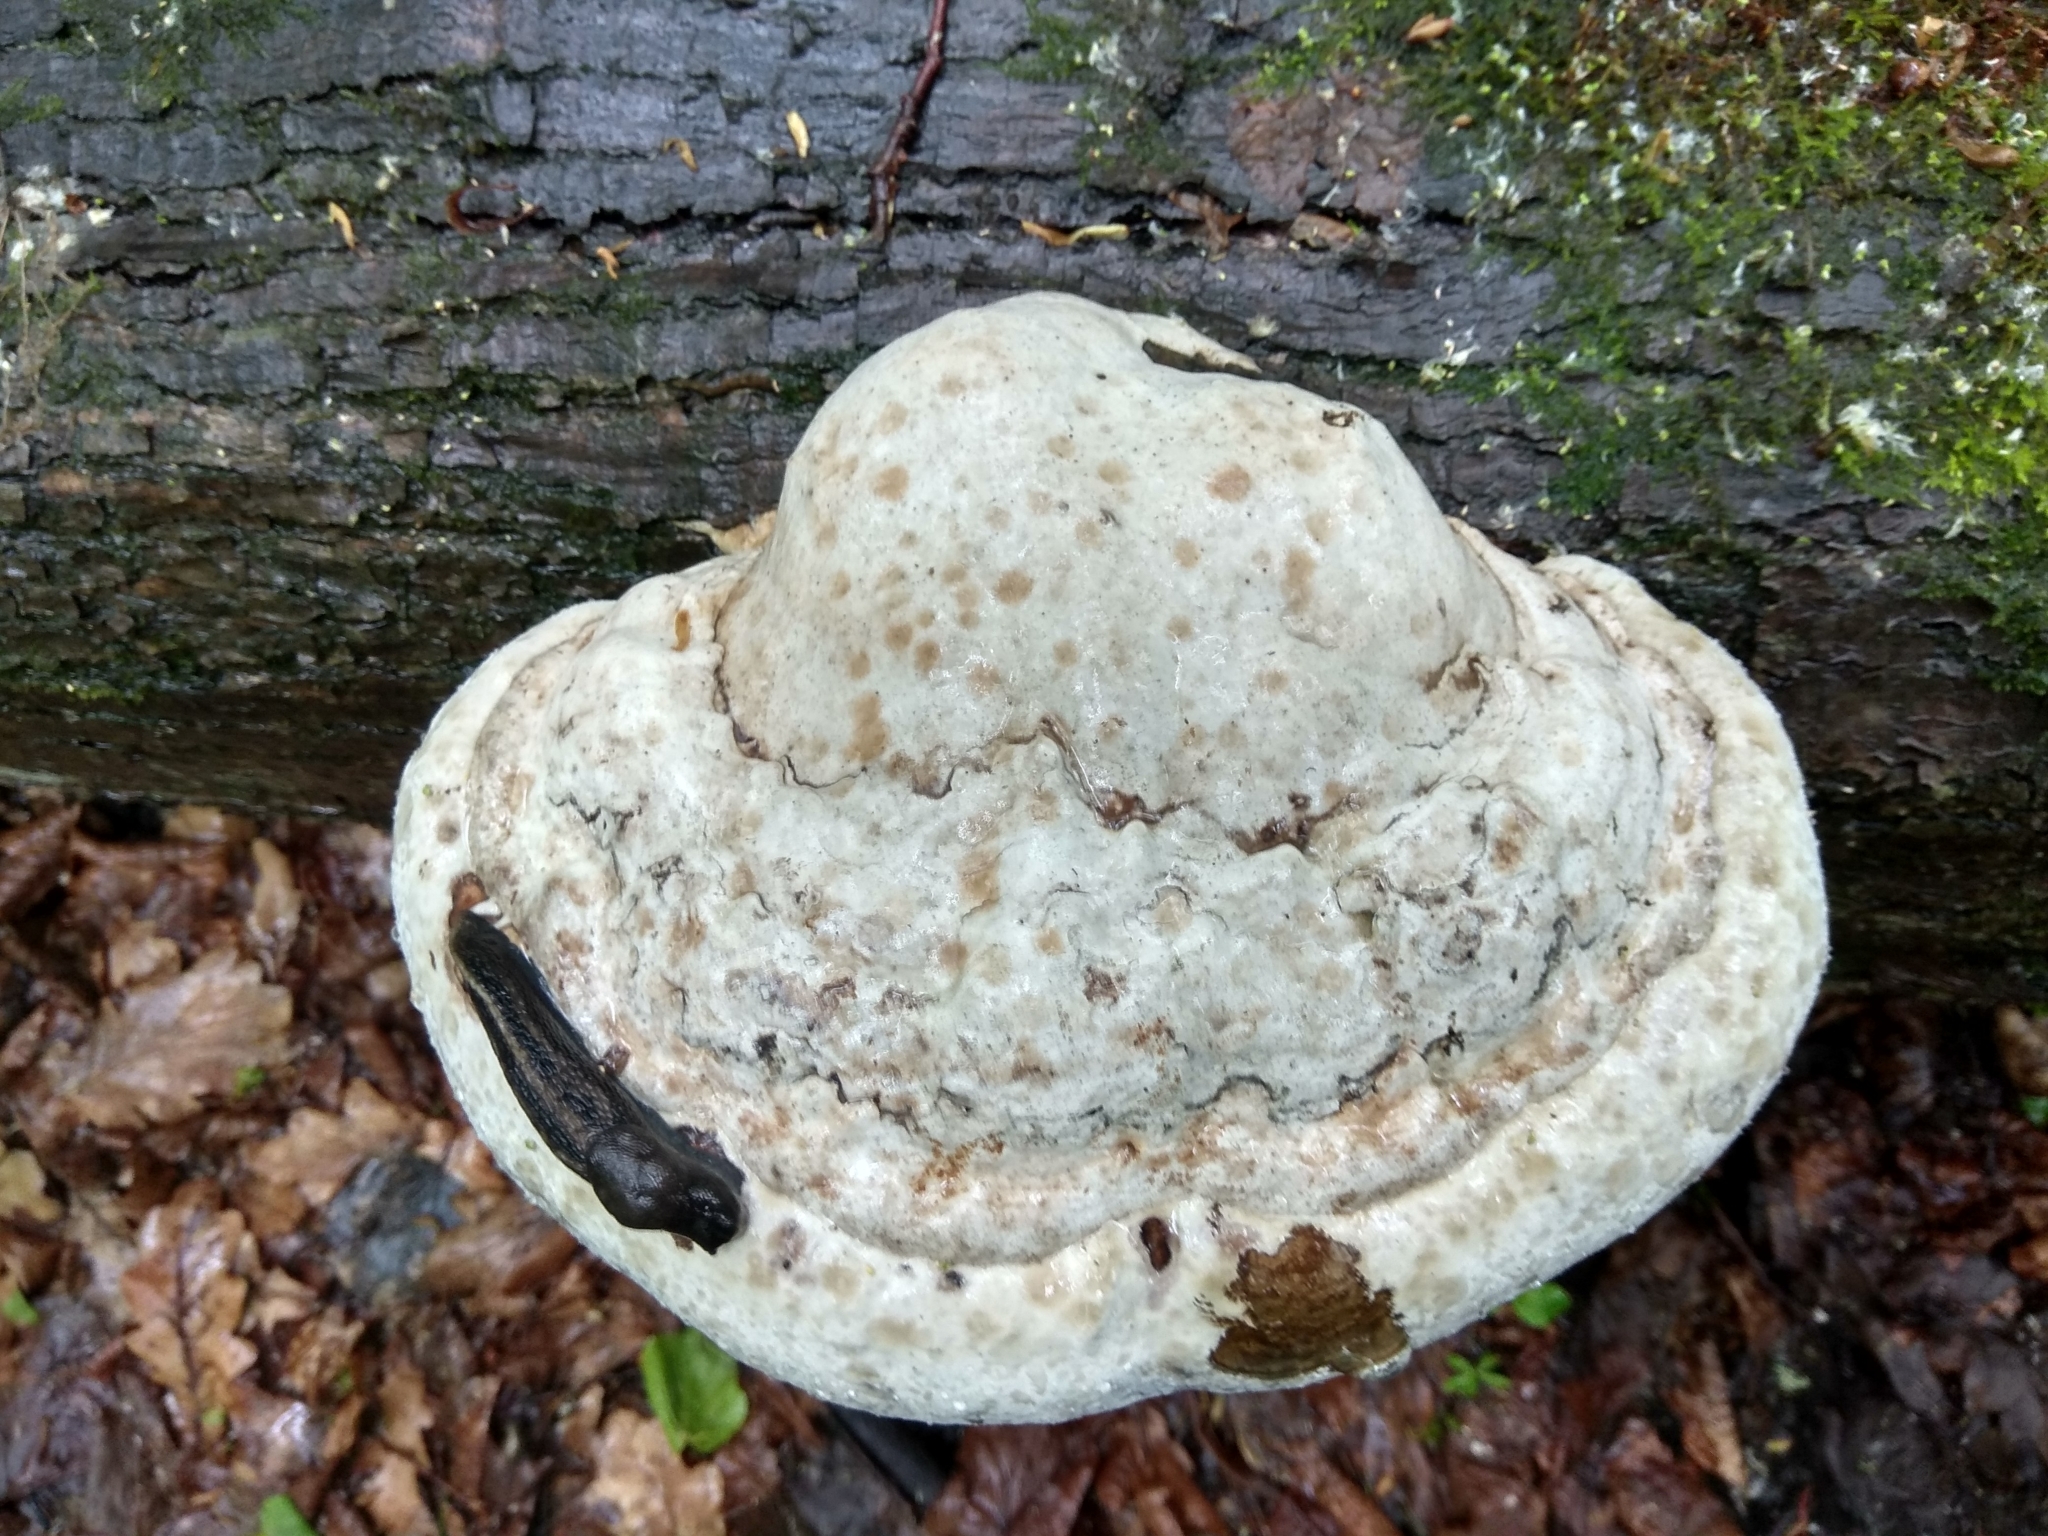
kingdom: Fungi
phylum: Basidiomycota
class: Agaricomycetes
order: Polyporales
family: Polyporaceae
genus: Fomes
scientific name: Fomes fomentarius
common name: Hoof fungus
